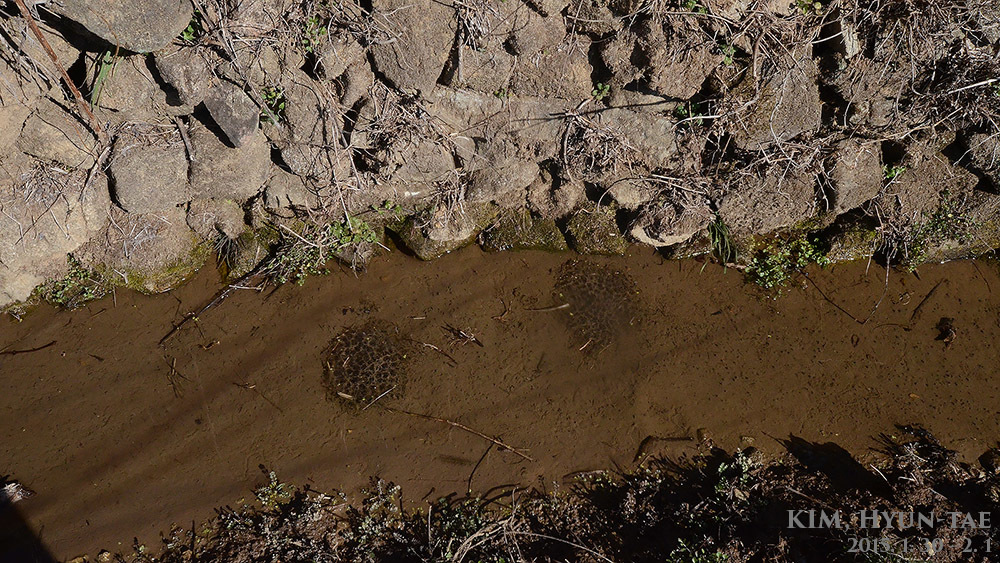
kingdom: Animalia
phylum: Chordata
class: Amphibia
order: Anura
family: Ranidae
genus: Rana
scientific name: Rana uenoi
